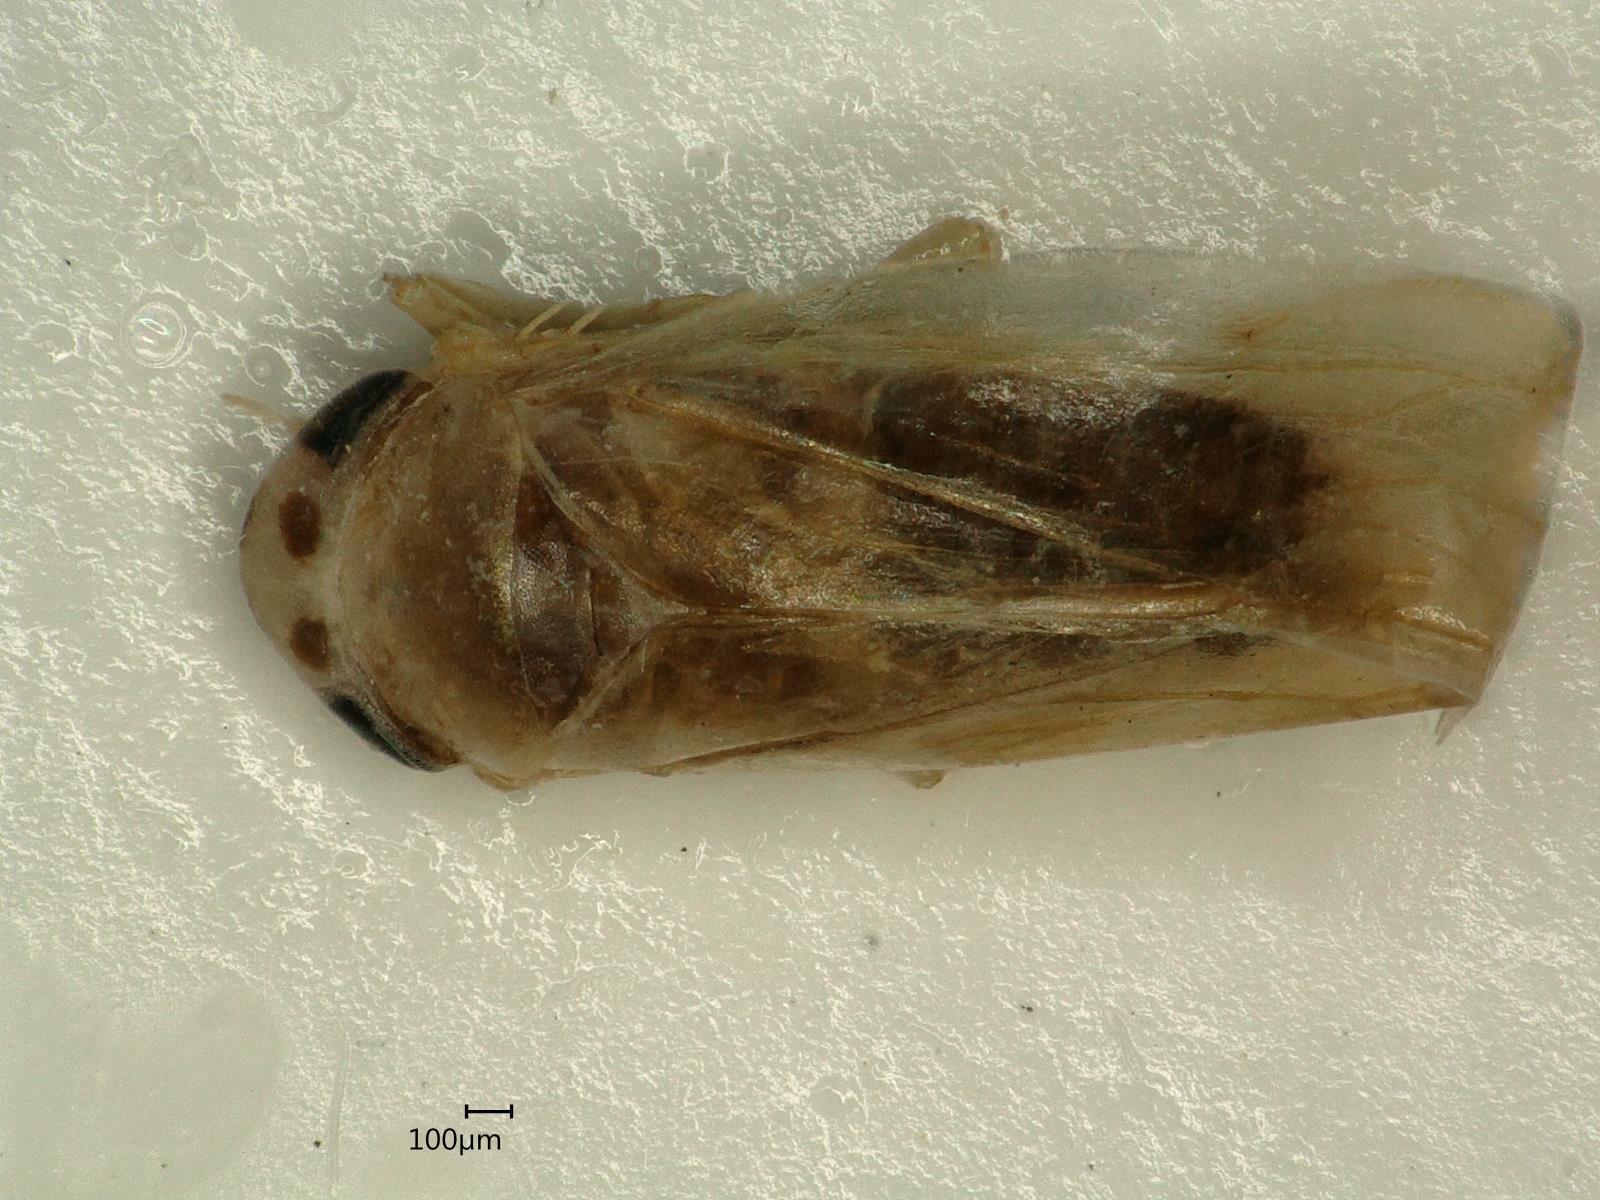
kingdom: Animalia
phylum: Arthropoda
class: Insecta
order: Hemiptera
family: Cicadellidae
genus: Macrosteles
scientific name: Macrosteles variatus
